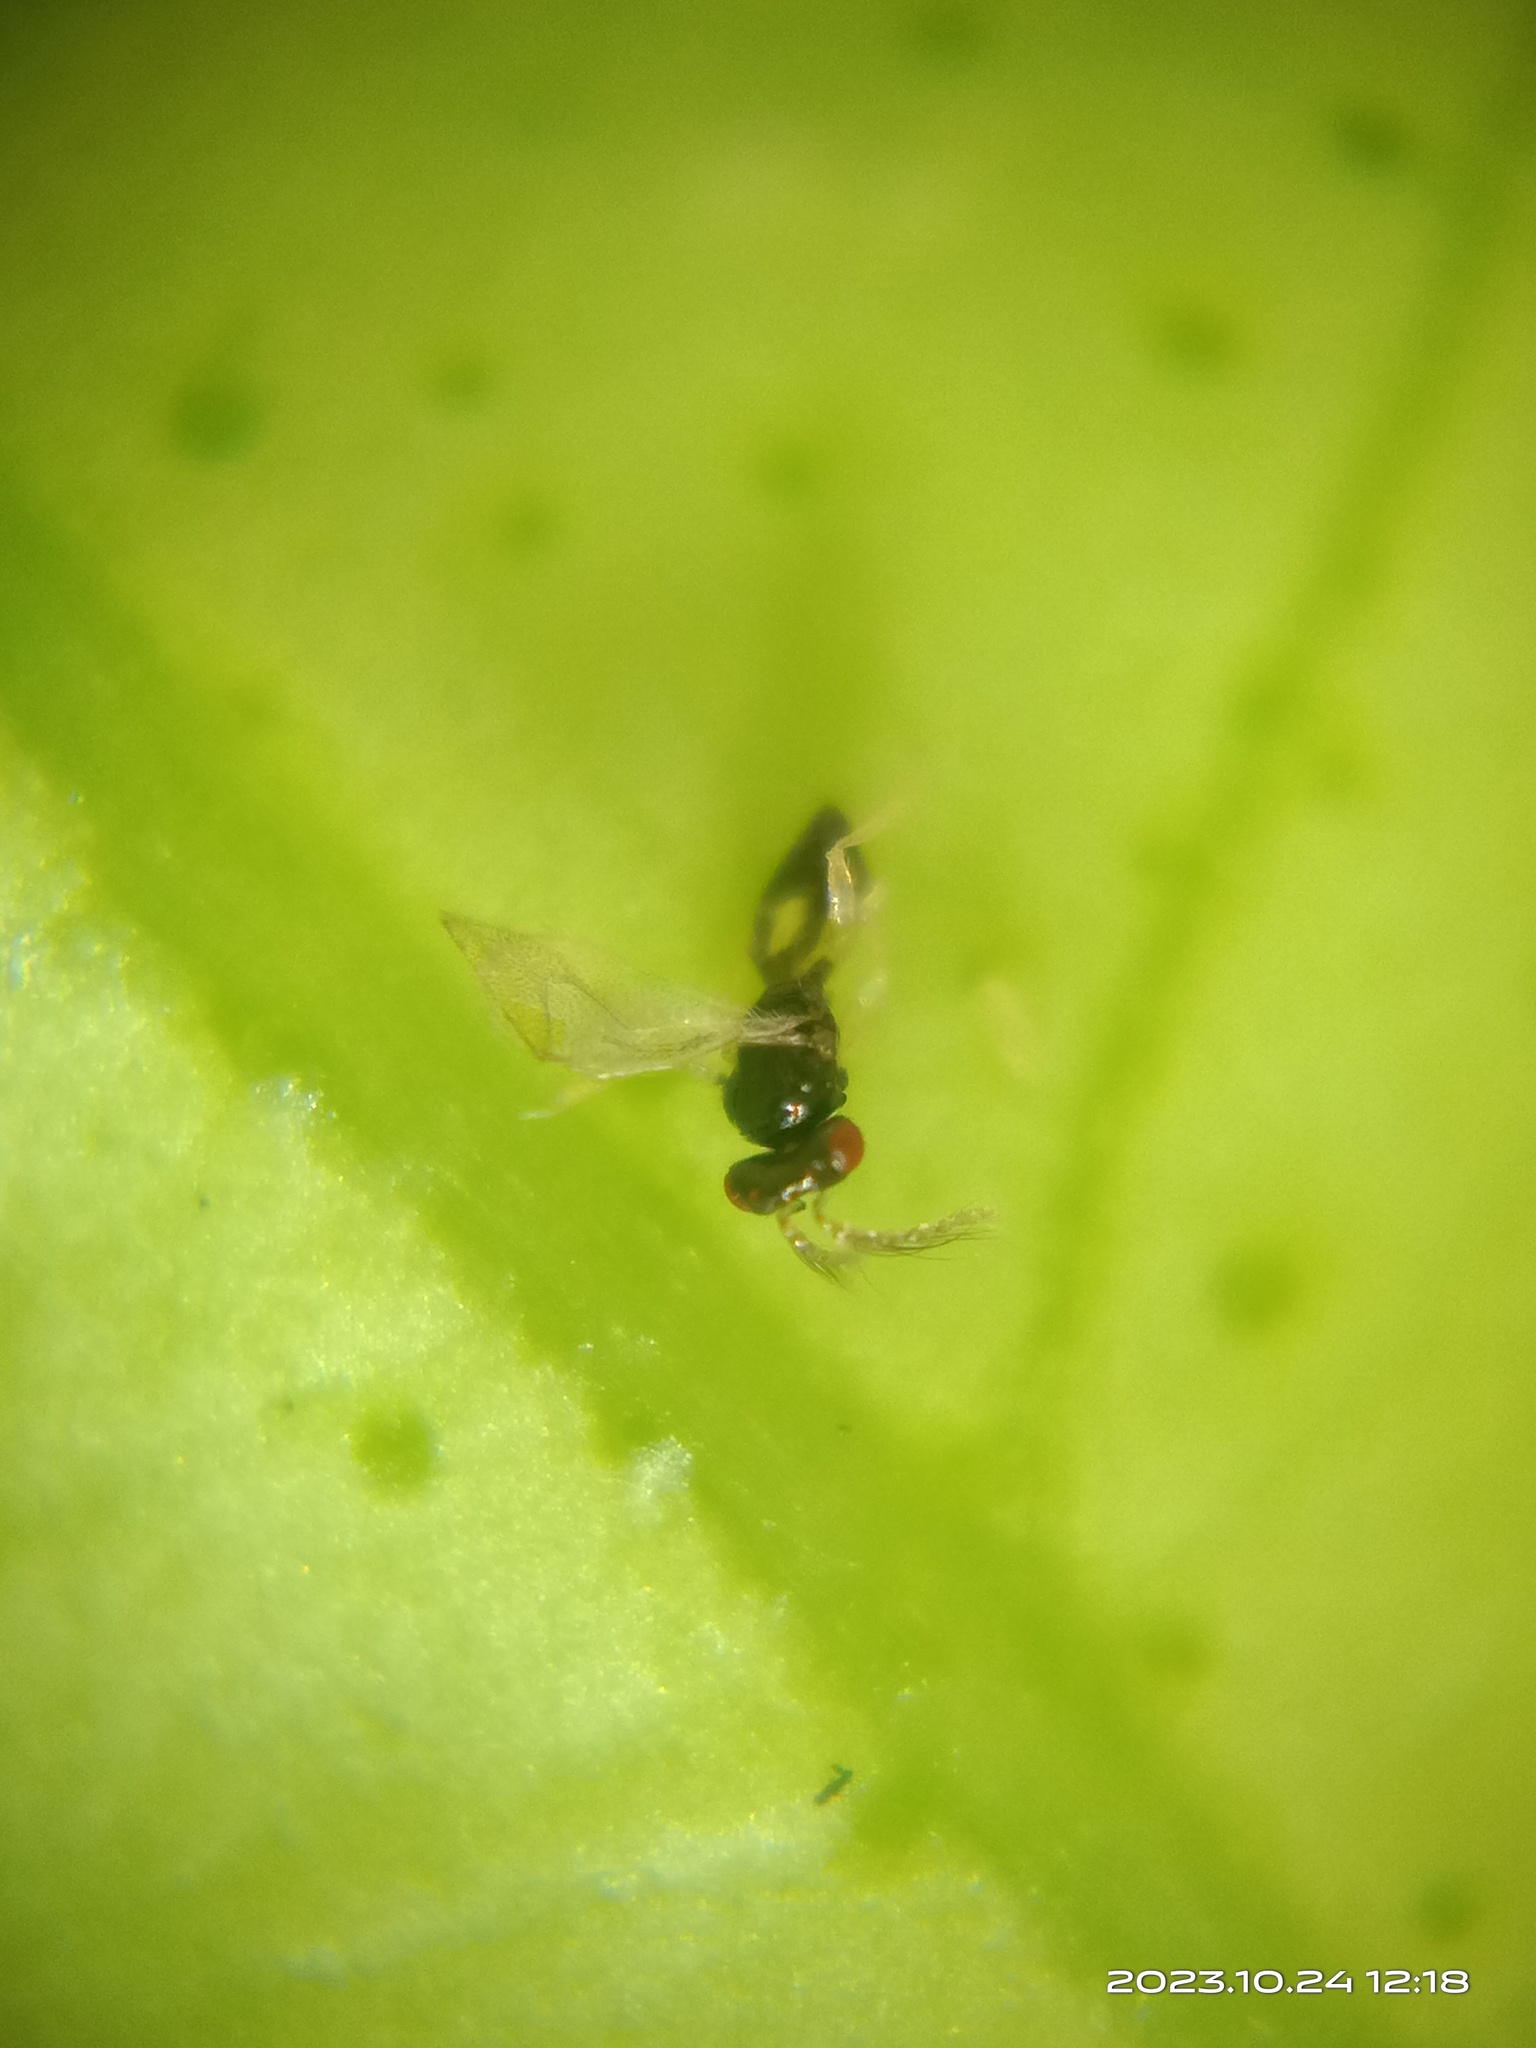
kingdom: Animalia
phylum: Arthropoda
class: Insecta
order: Hymenoptera
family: Eulophidae
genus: Tamarixia
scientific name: Tamarixia radiata
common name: Parasitoid wasp
